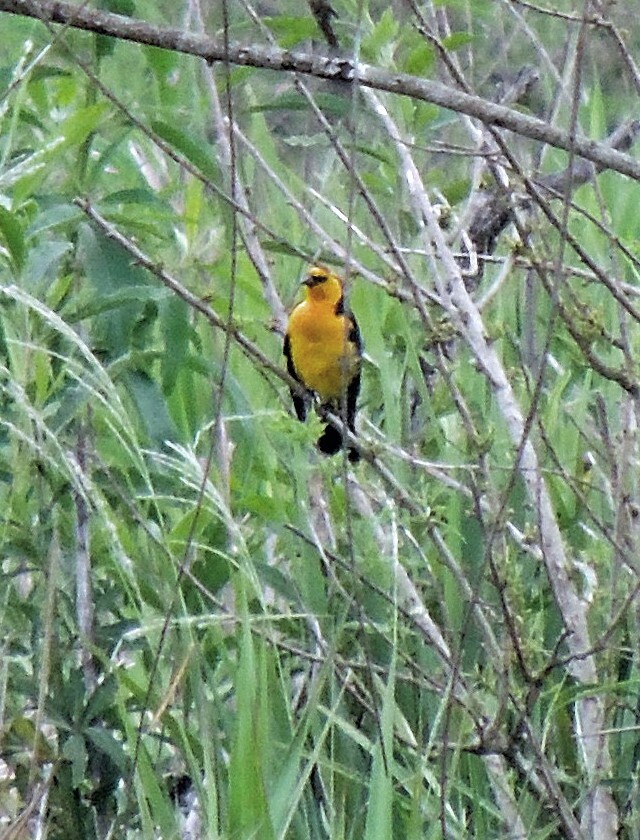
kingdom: Animalia
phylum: Chordata
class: Aves
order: Passeriformes
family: Icteridae
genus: Xanthopsar
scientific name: Xanthopsar flavus
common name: Saffron-cowled blackbird
